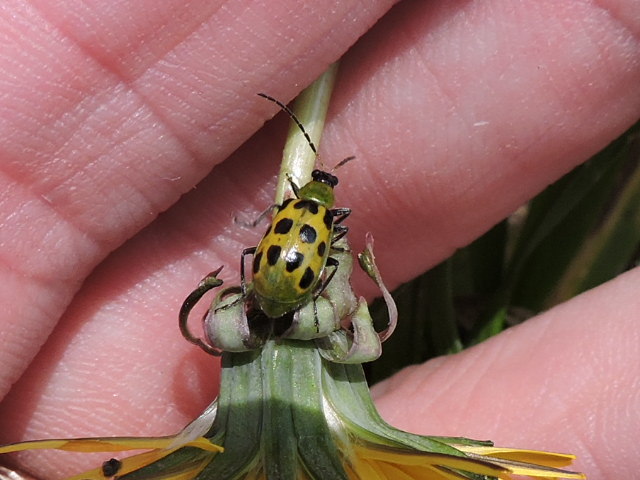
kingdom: Animalia
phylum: Arthropoda
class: Insecta
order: Coleoptera
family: Chrysomelidae
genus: Diabrotica
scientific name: Diabrotica undecimpunctata
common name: Spotted cucumber beetle
